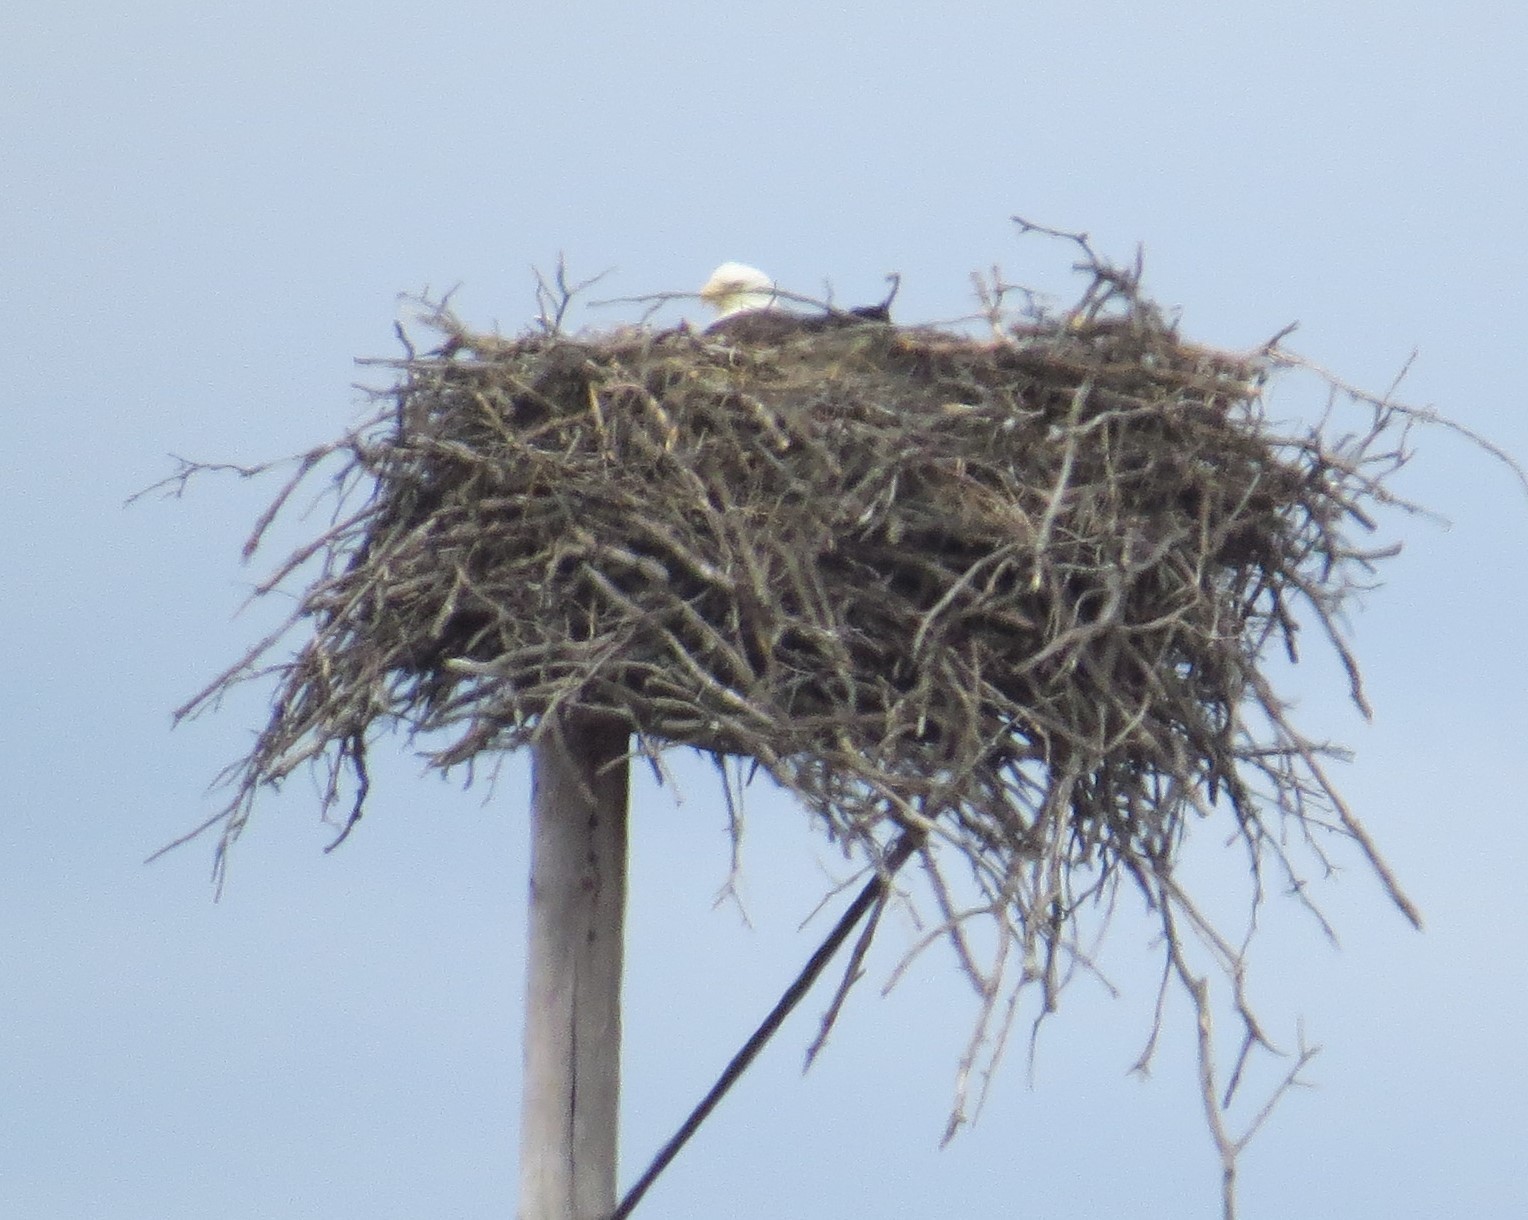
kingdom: Animalia
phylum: Chordata
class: Aves
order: Accipitriformes
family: Accipitridae
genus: Haliaeetus
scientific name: Haliaeetus leucocephalus
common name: Bald eagle
